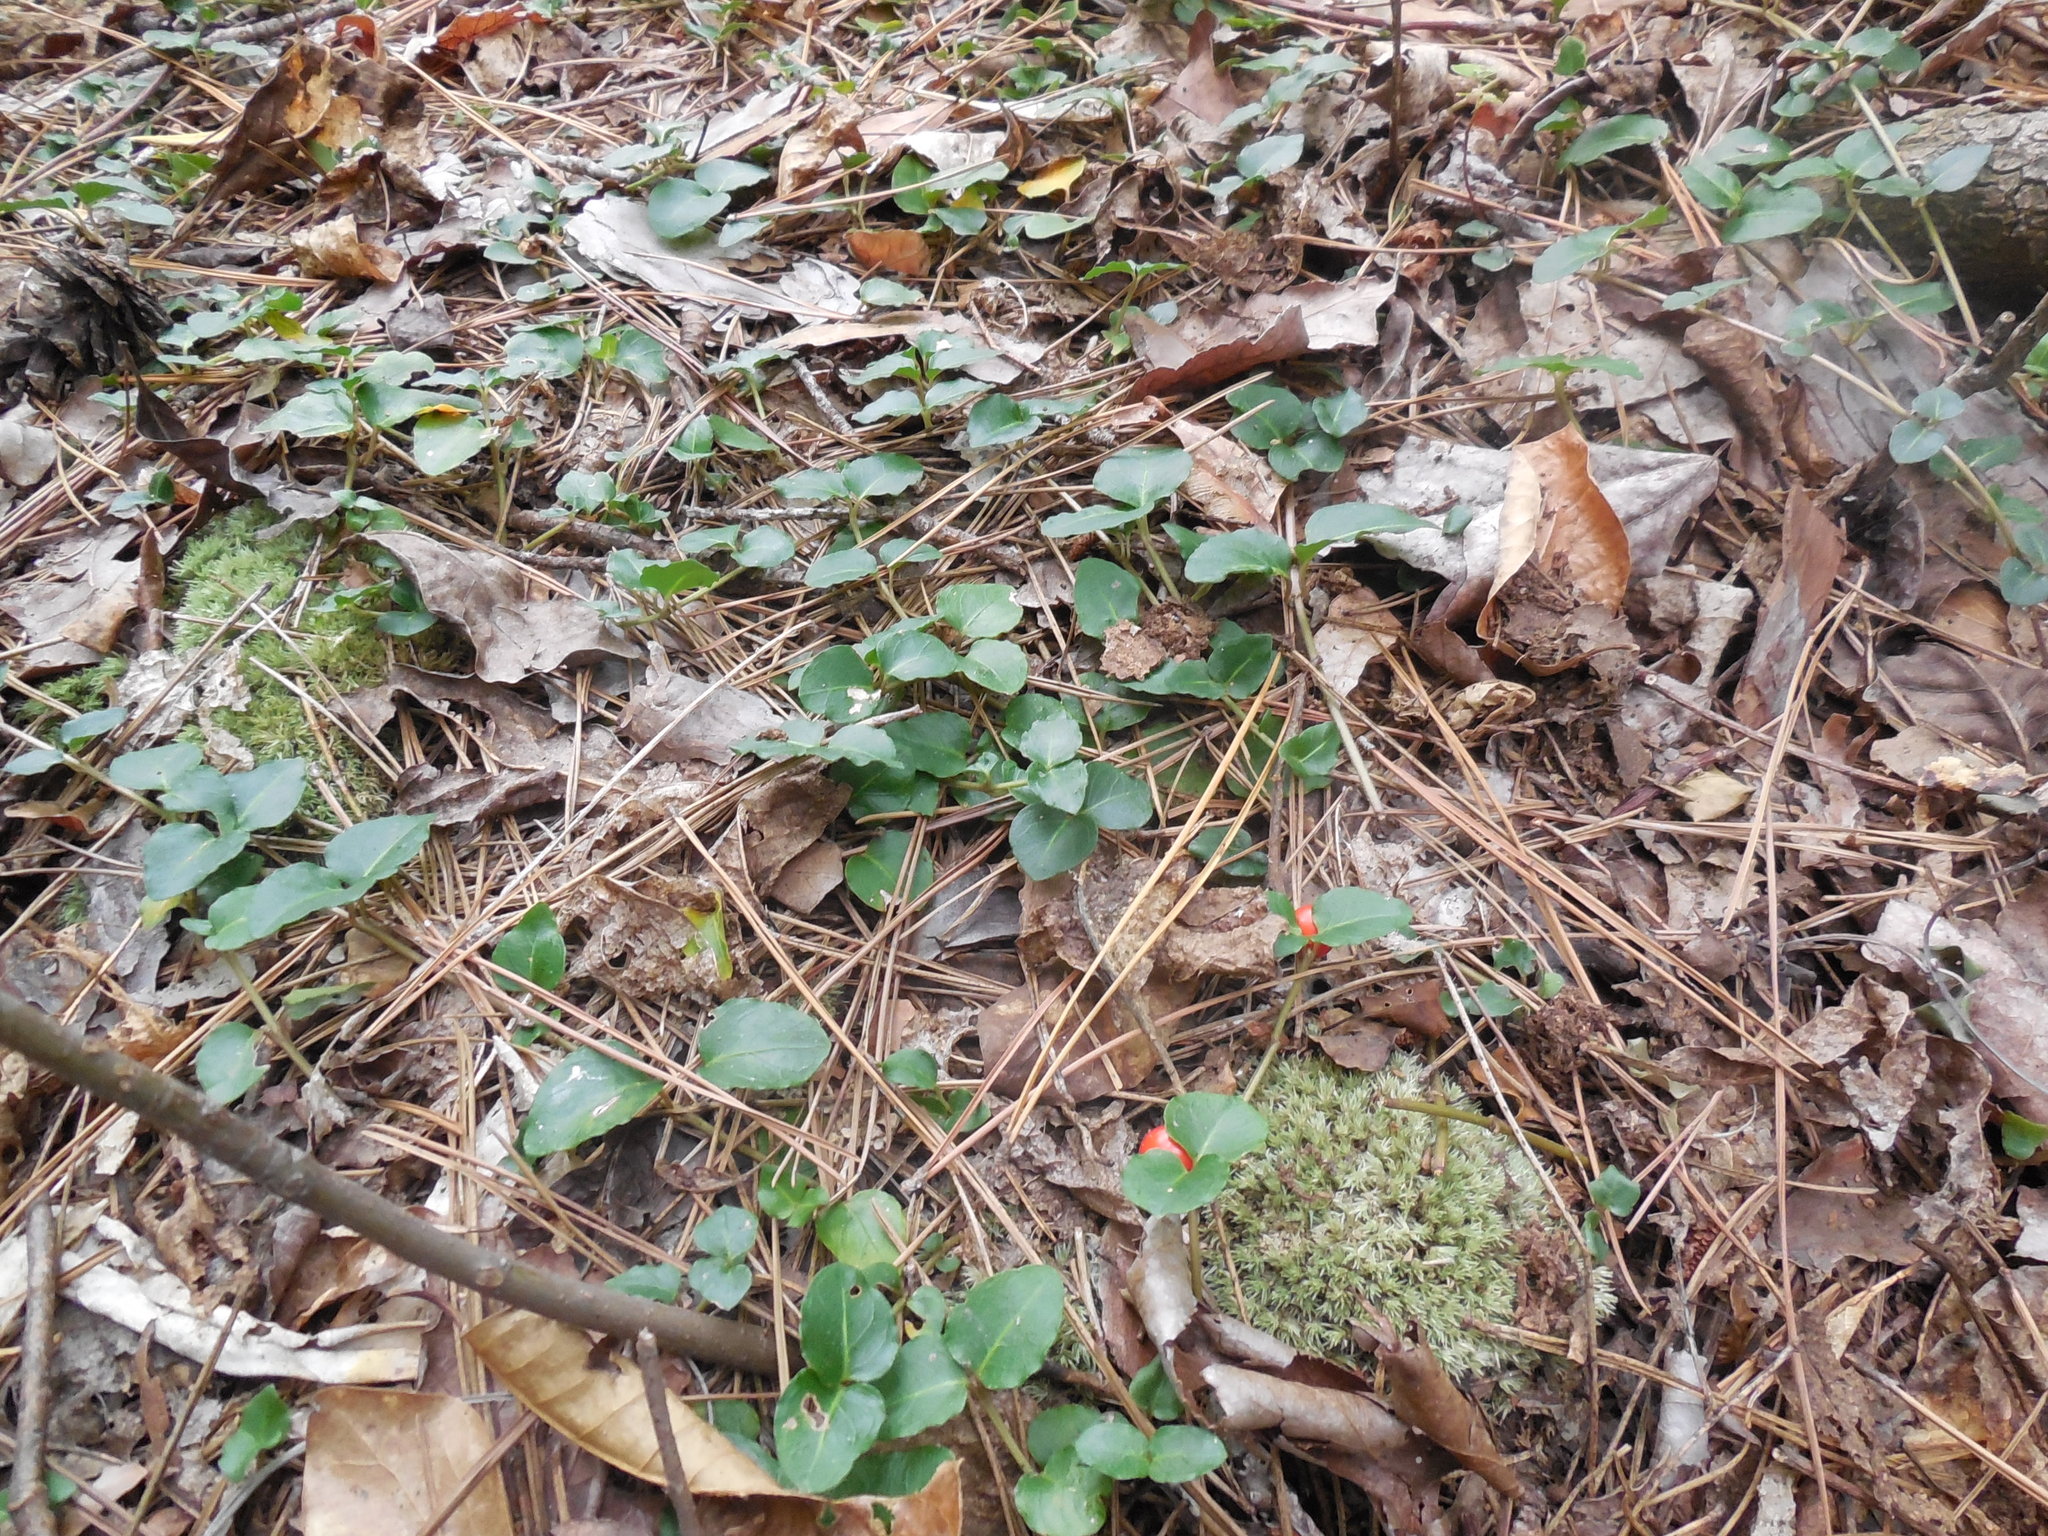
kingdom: Plantae
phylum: Tracheophyta
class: Magnoliopsida
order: Gentianales
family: Rubiaceae
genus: Mitchella
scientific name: Mitchella repens
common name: Partridge-berry
